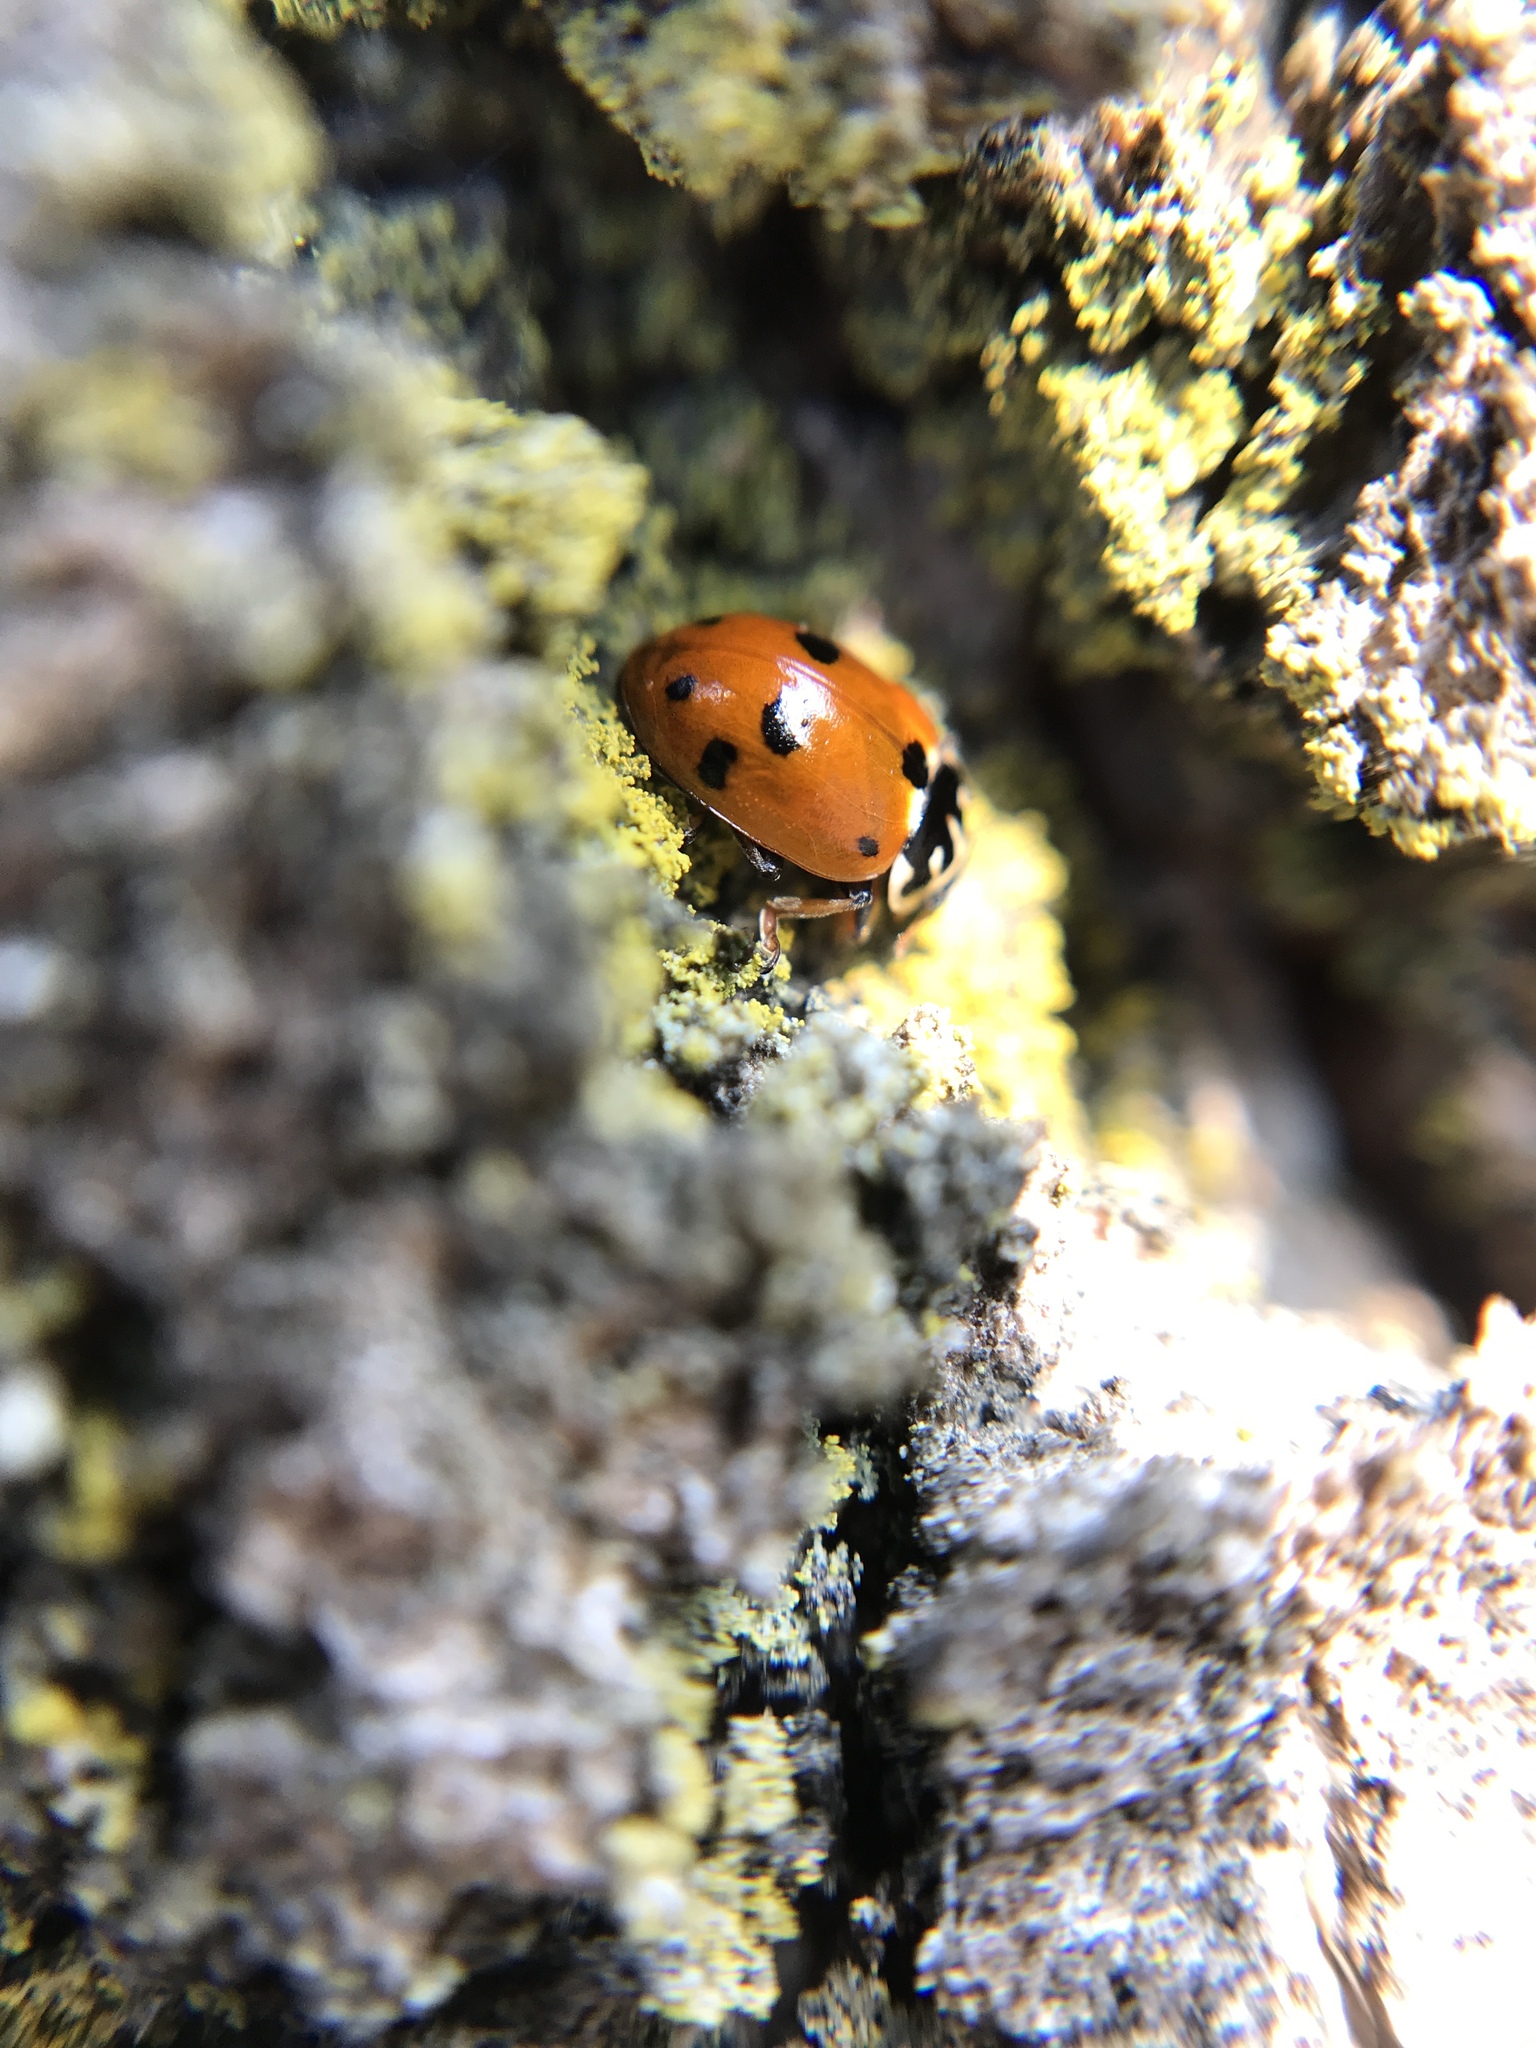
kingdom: Animalia
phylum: Arthropoda
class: Insecta
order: Coleoptera
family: Coccinellidae
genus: Hippodamia
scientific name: Hippodamia variegata
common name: Ladybird beetle
